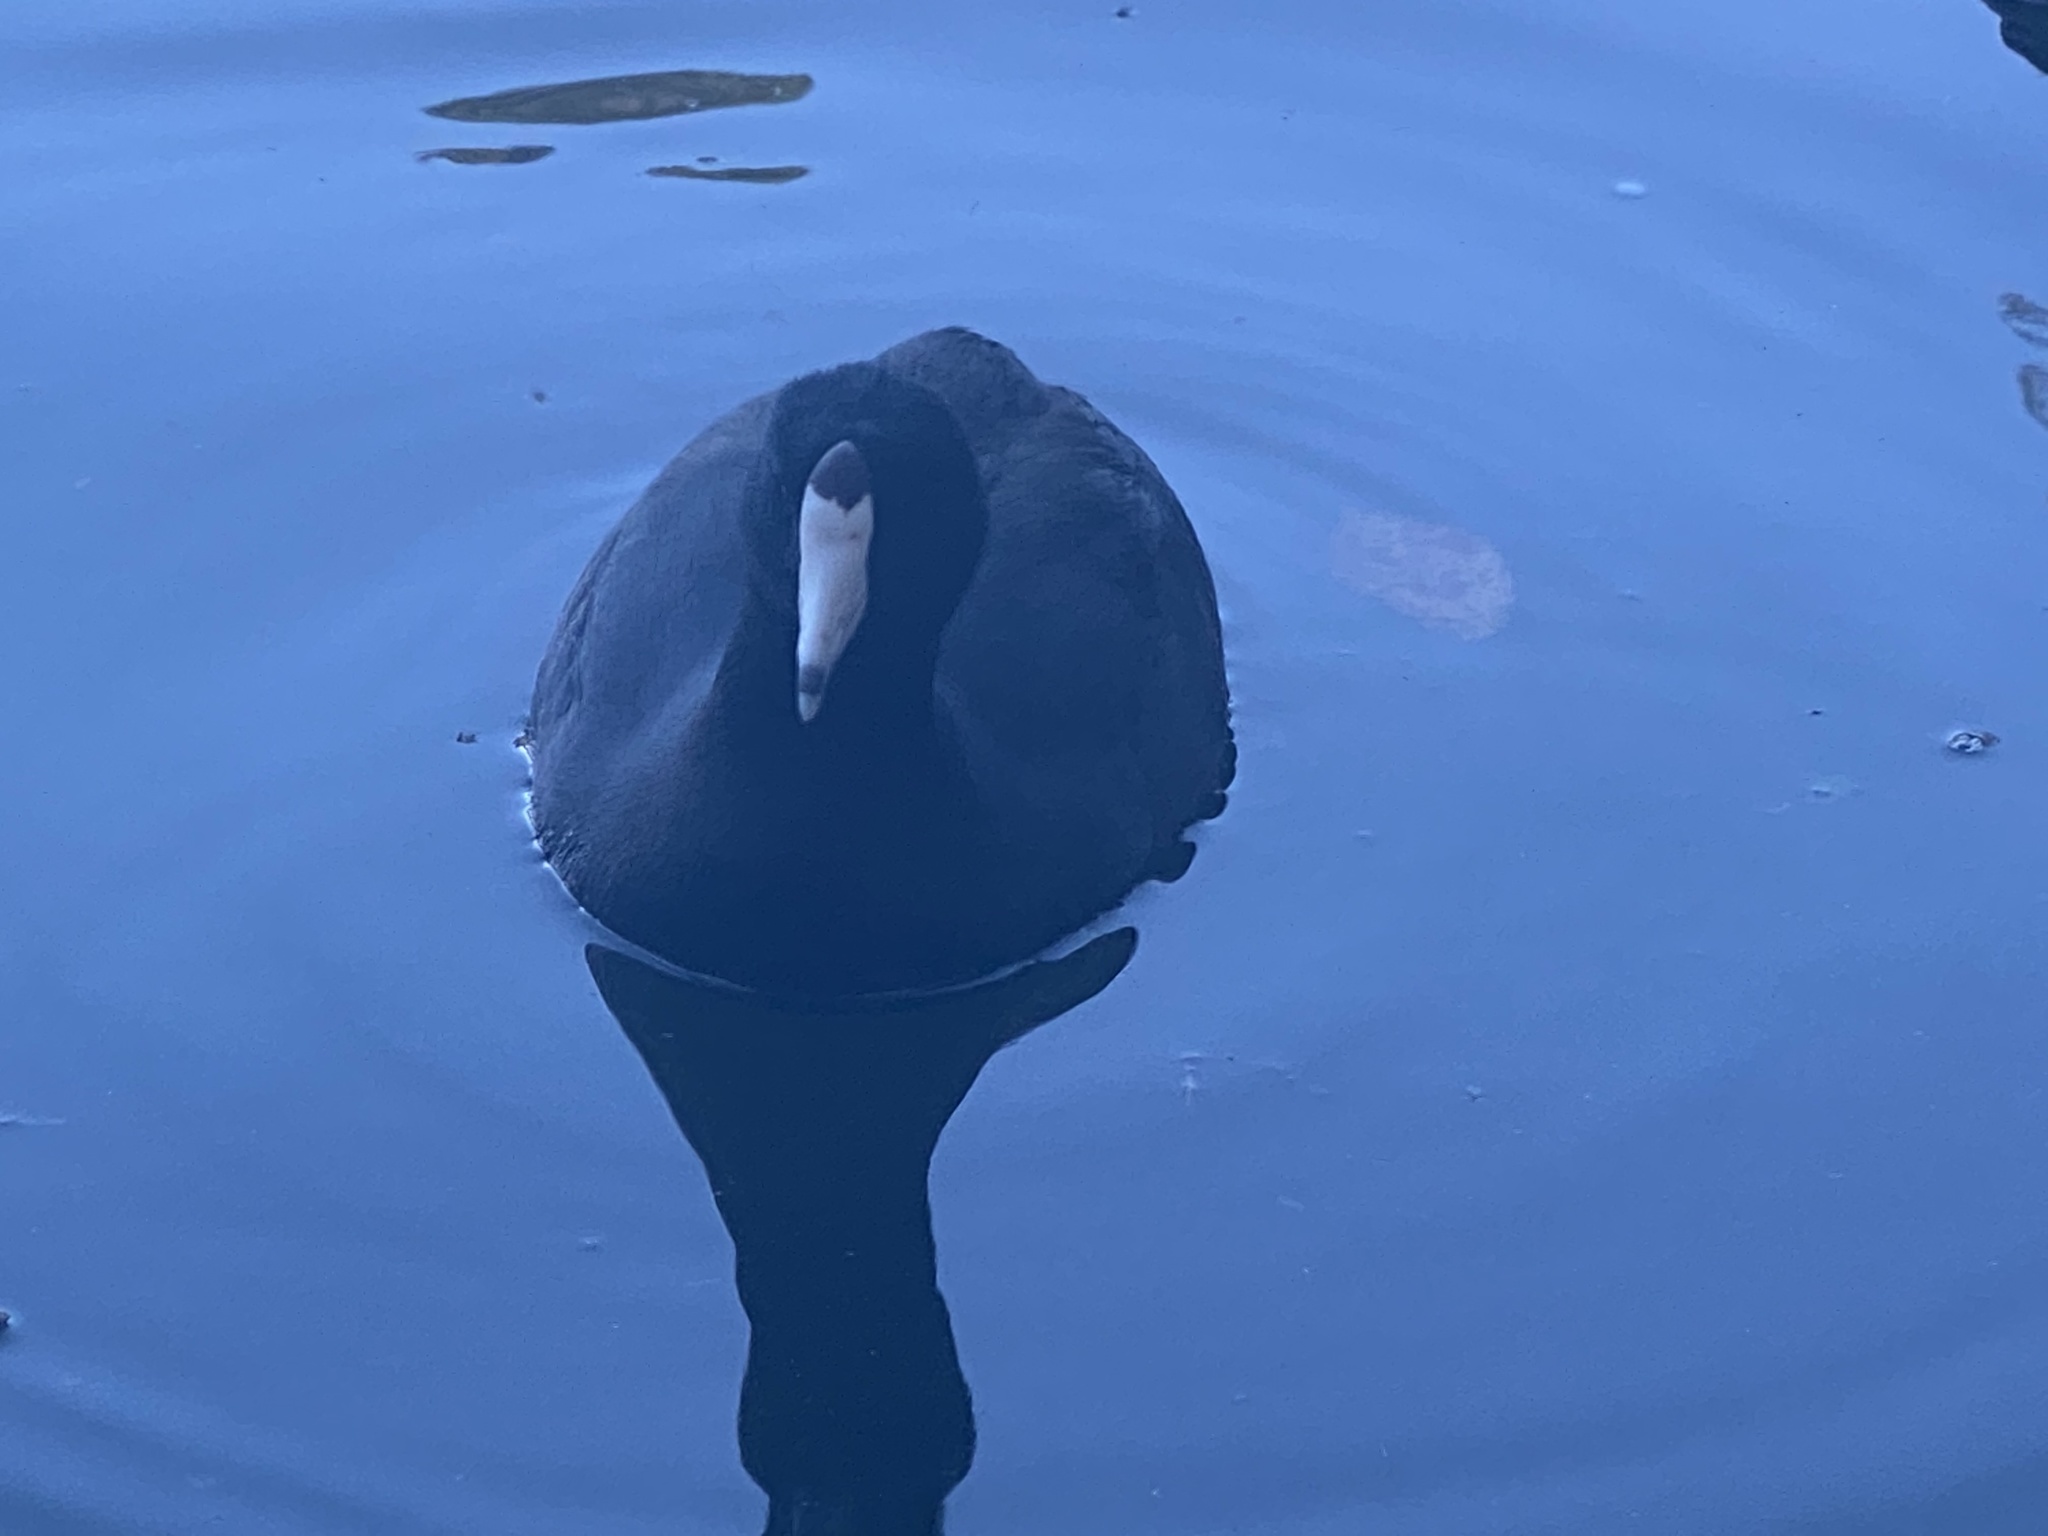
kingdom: Animalia
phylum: Chordata
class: Aves
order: Gruiformes
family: Rallidae
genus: Fulica
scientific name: Fulica americana
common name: American coot
